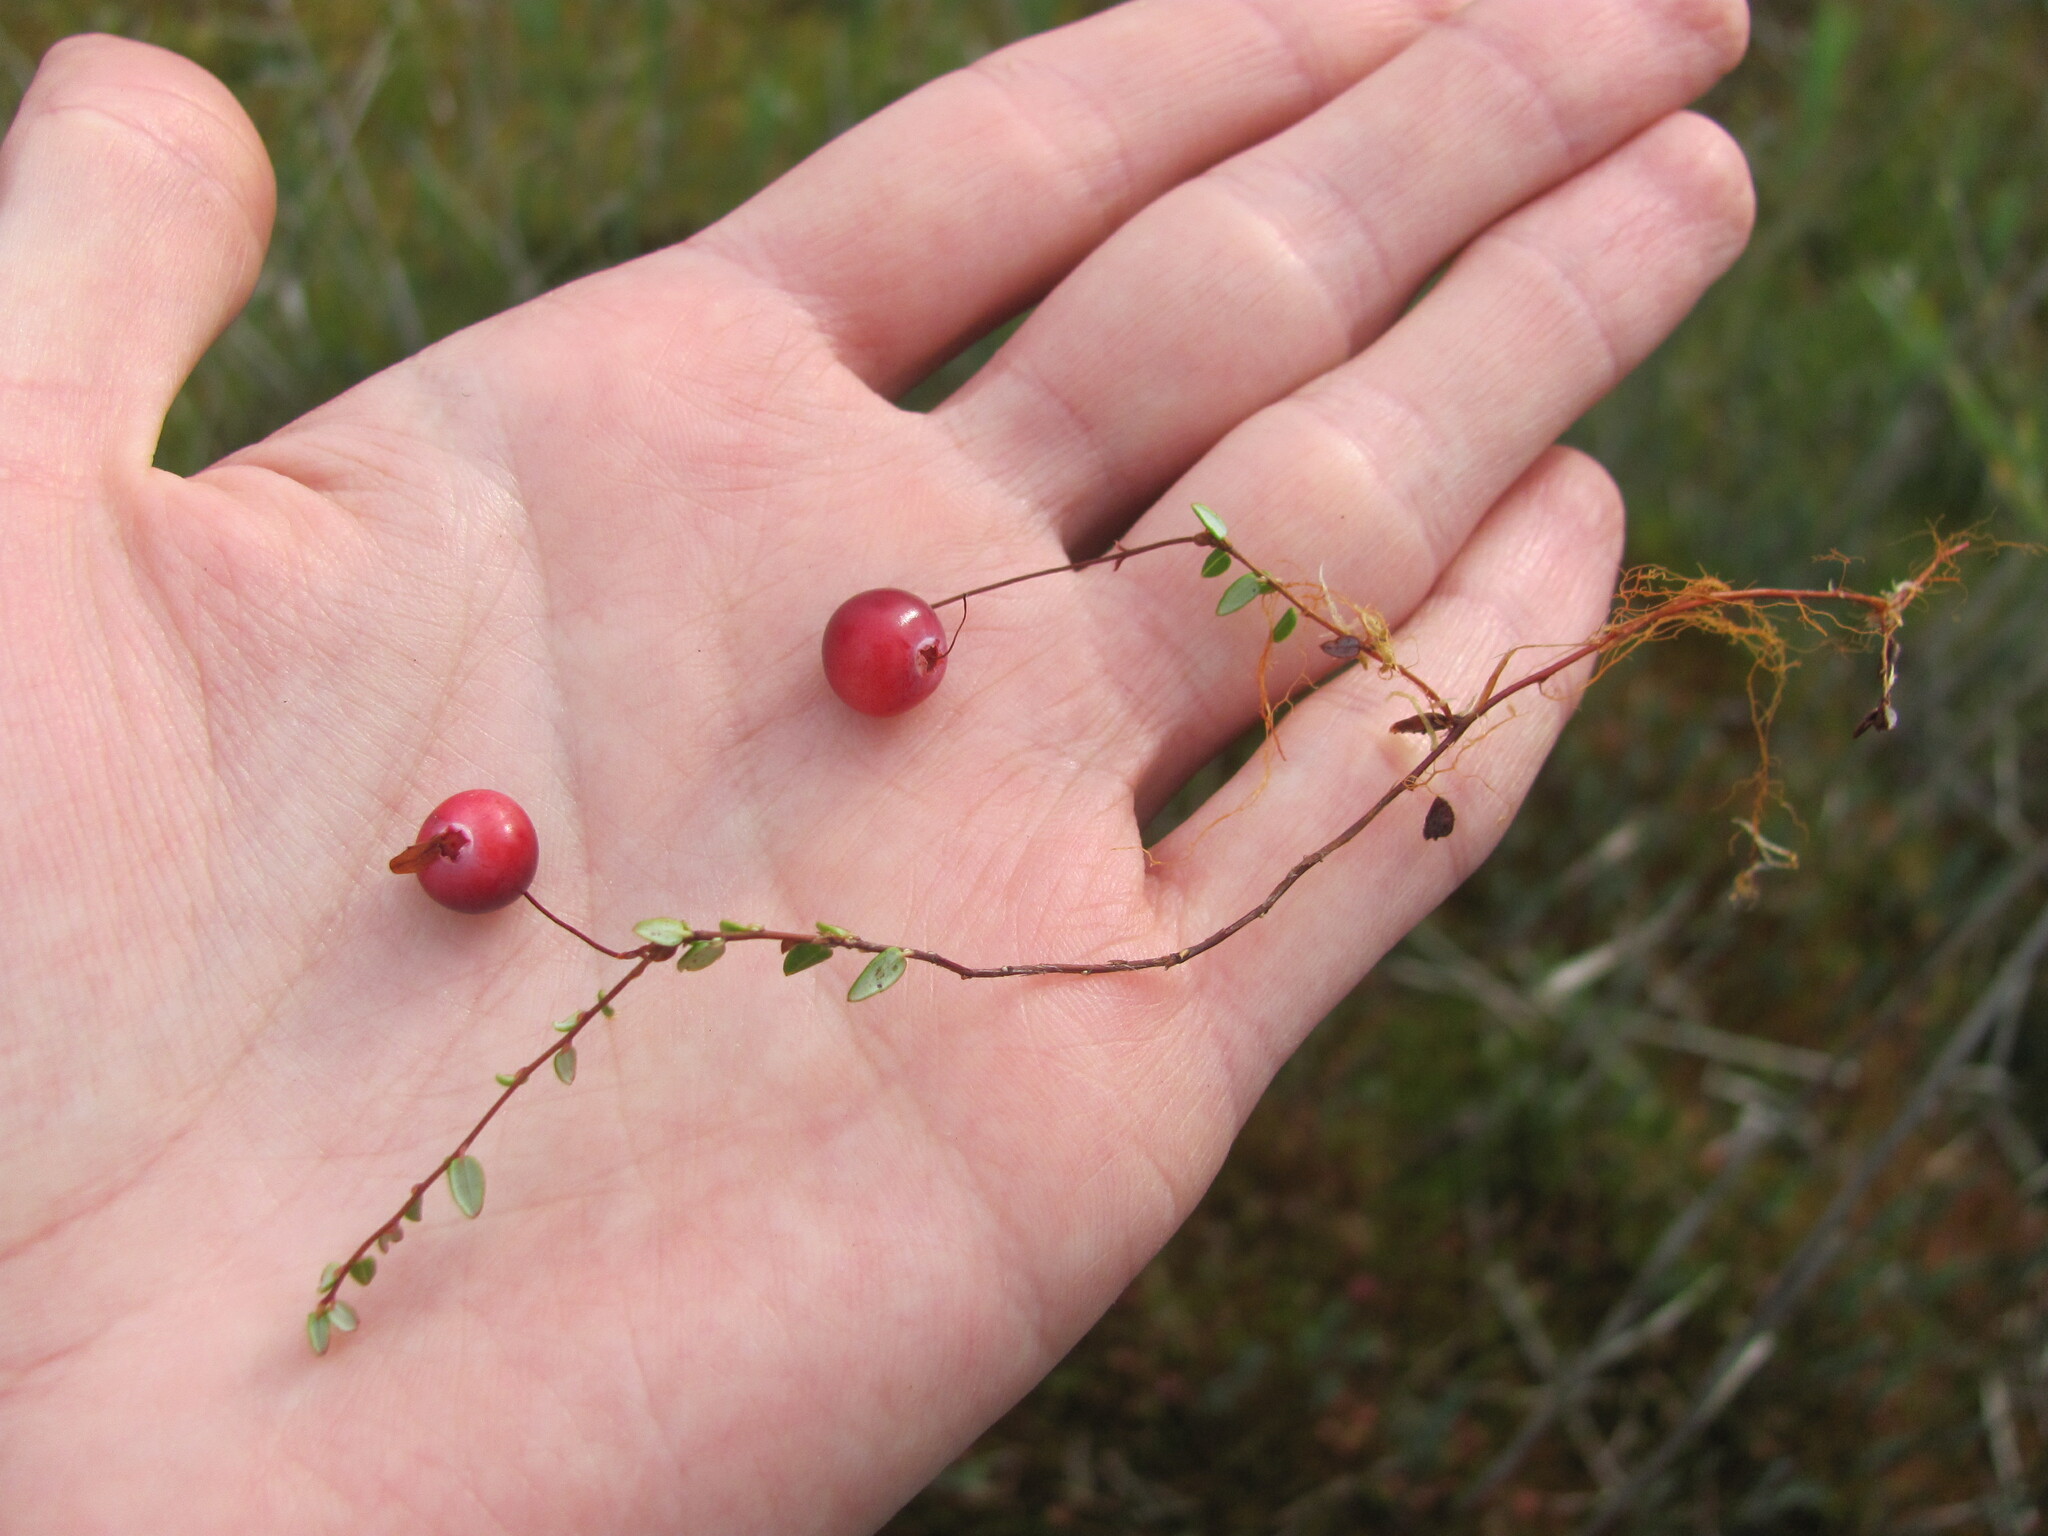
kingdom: Plantae
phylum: Tracheophyta
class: Magnoliopsida
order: Ericales
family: Ericaceae
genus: Vaccinium
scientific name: Vaccinium microcarpum
